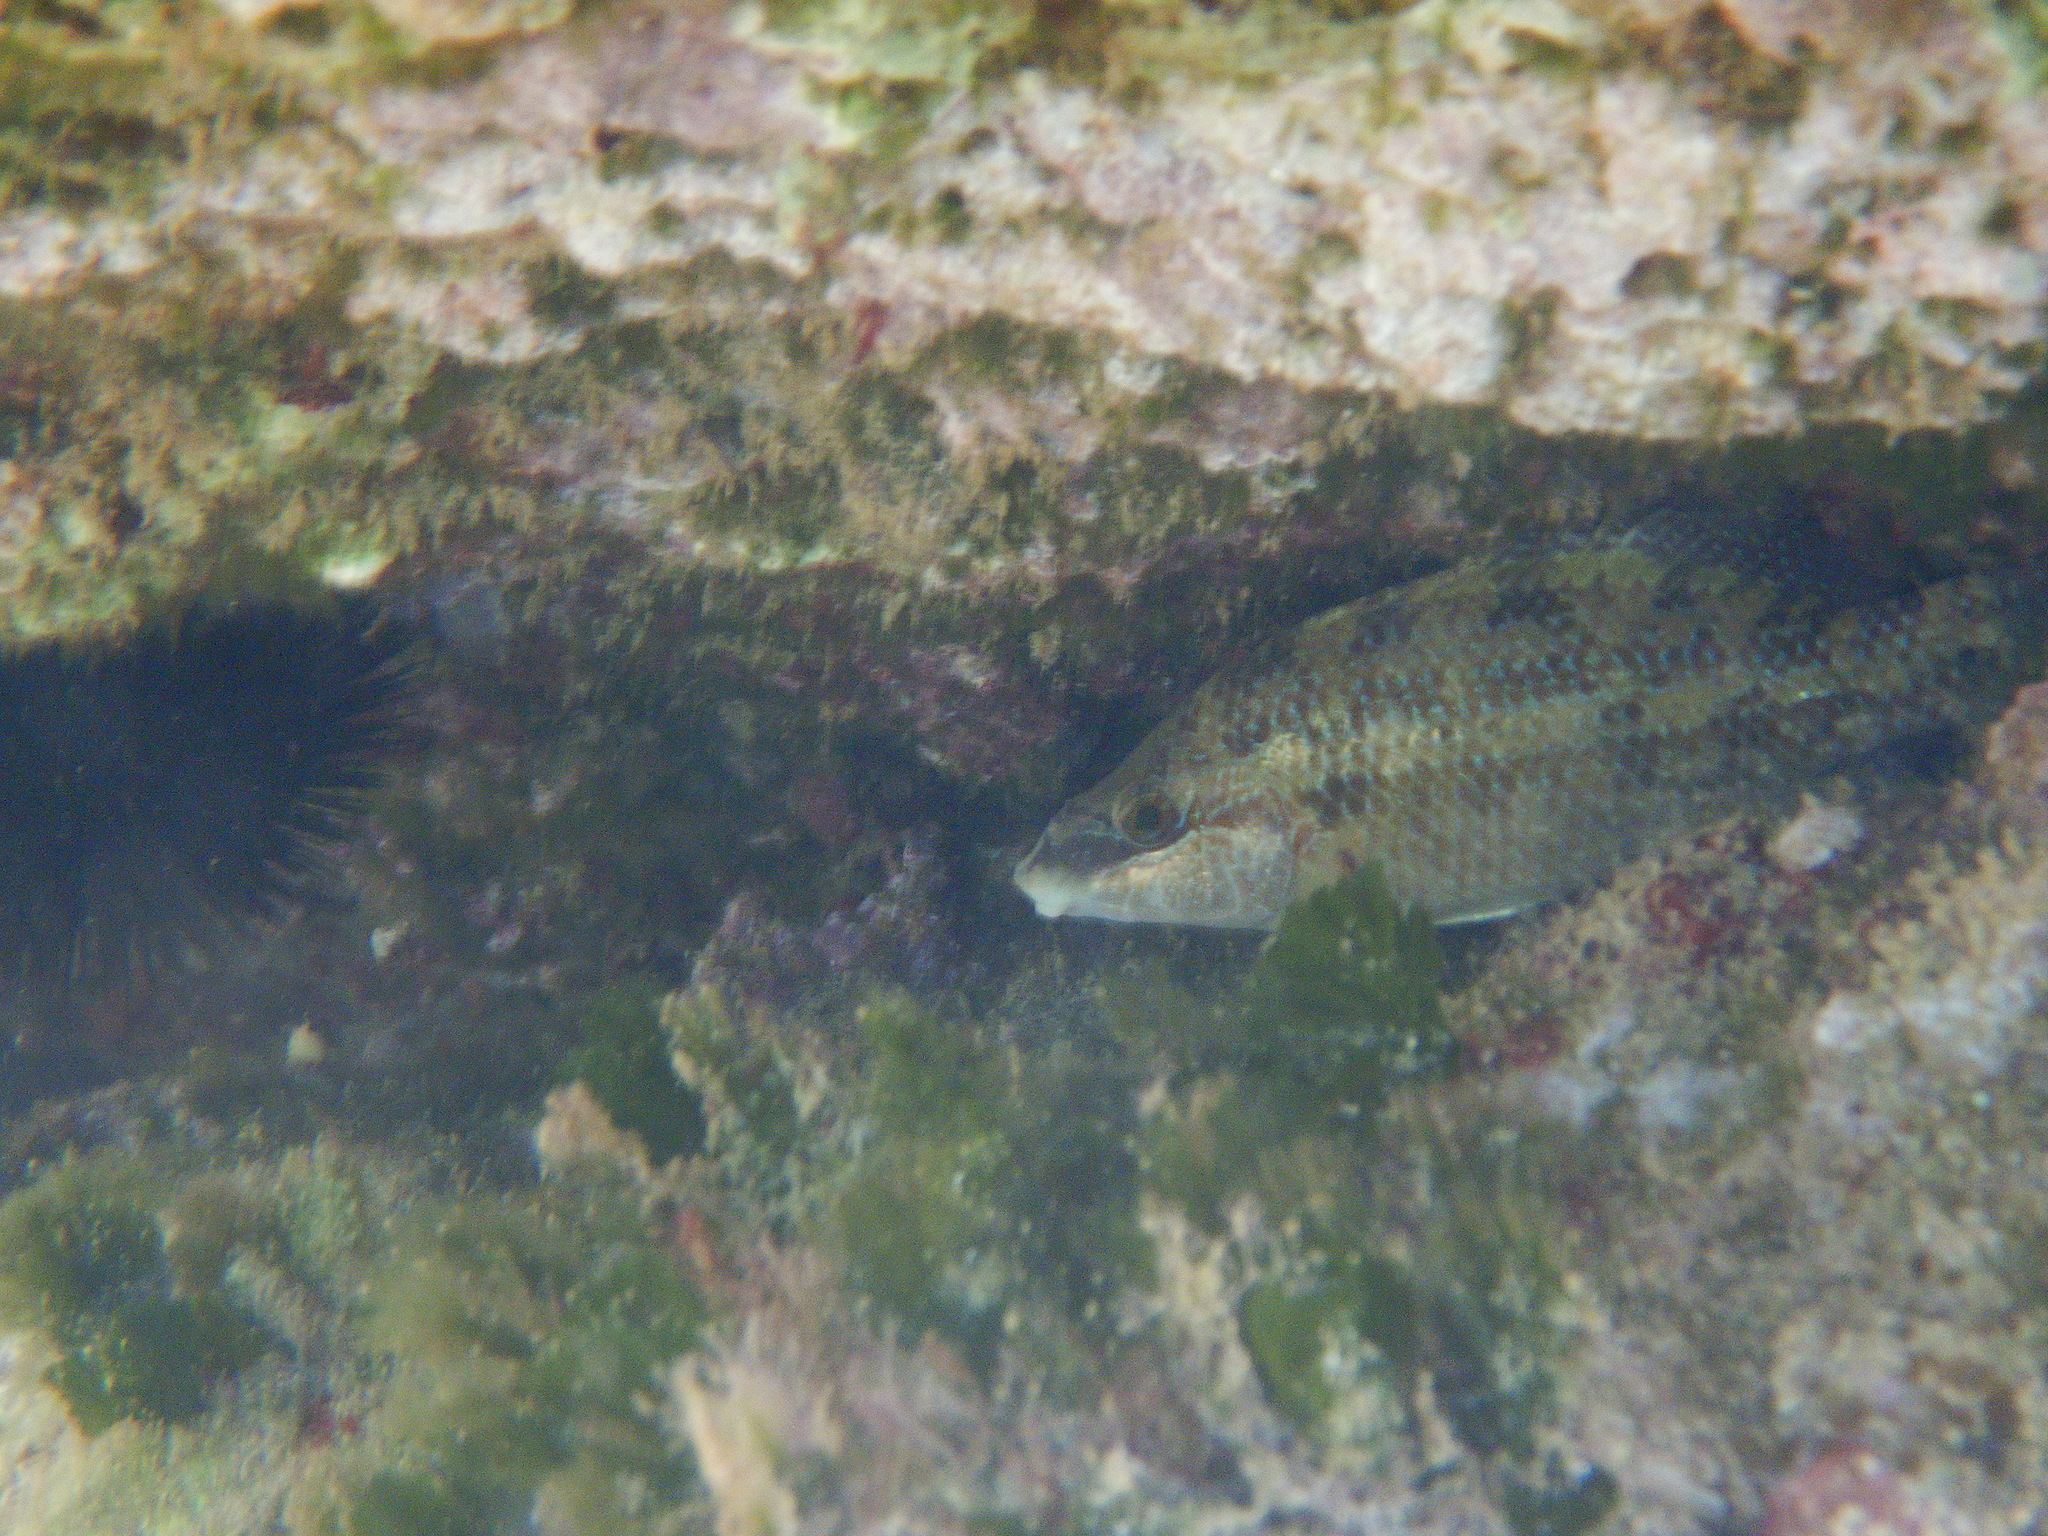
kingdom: Animalia
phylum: Chordata
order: Perciformes
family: Labridae
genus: Symphodus
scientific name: Symphodus tinca
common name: Peacock wrasse
